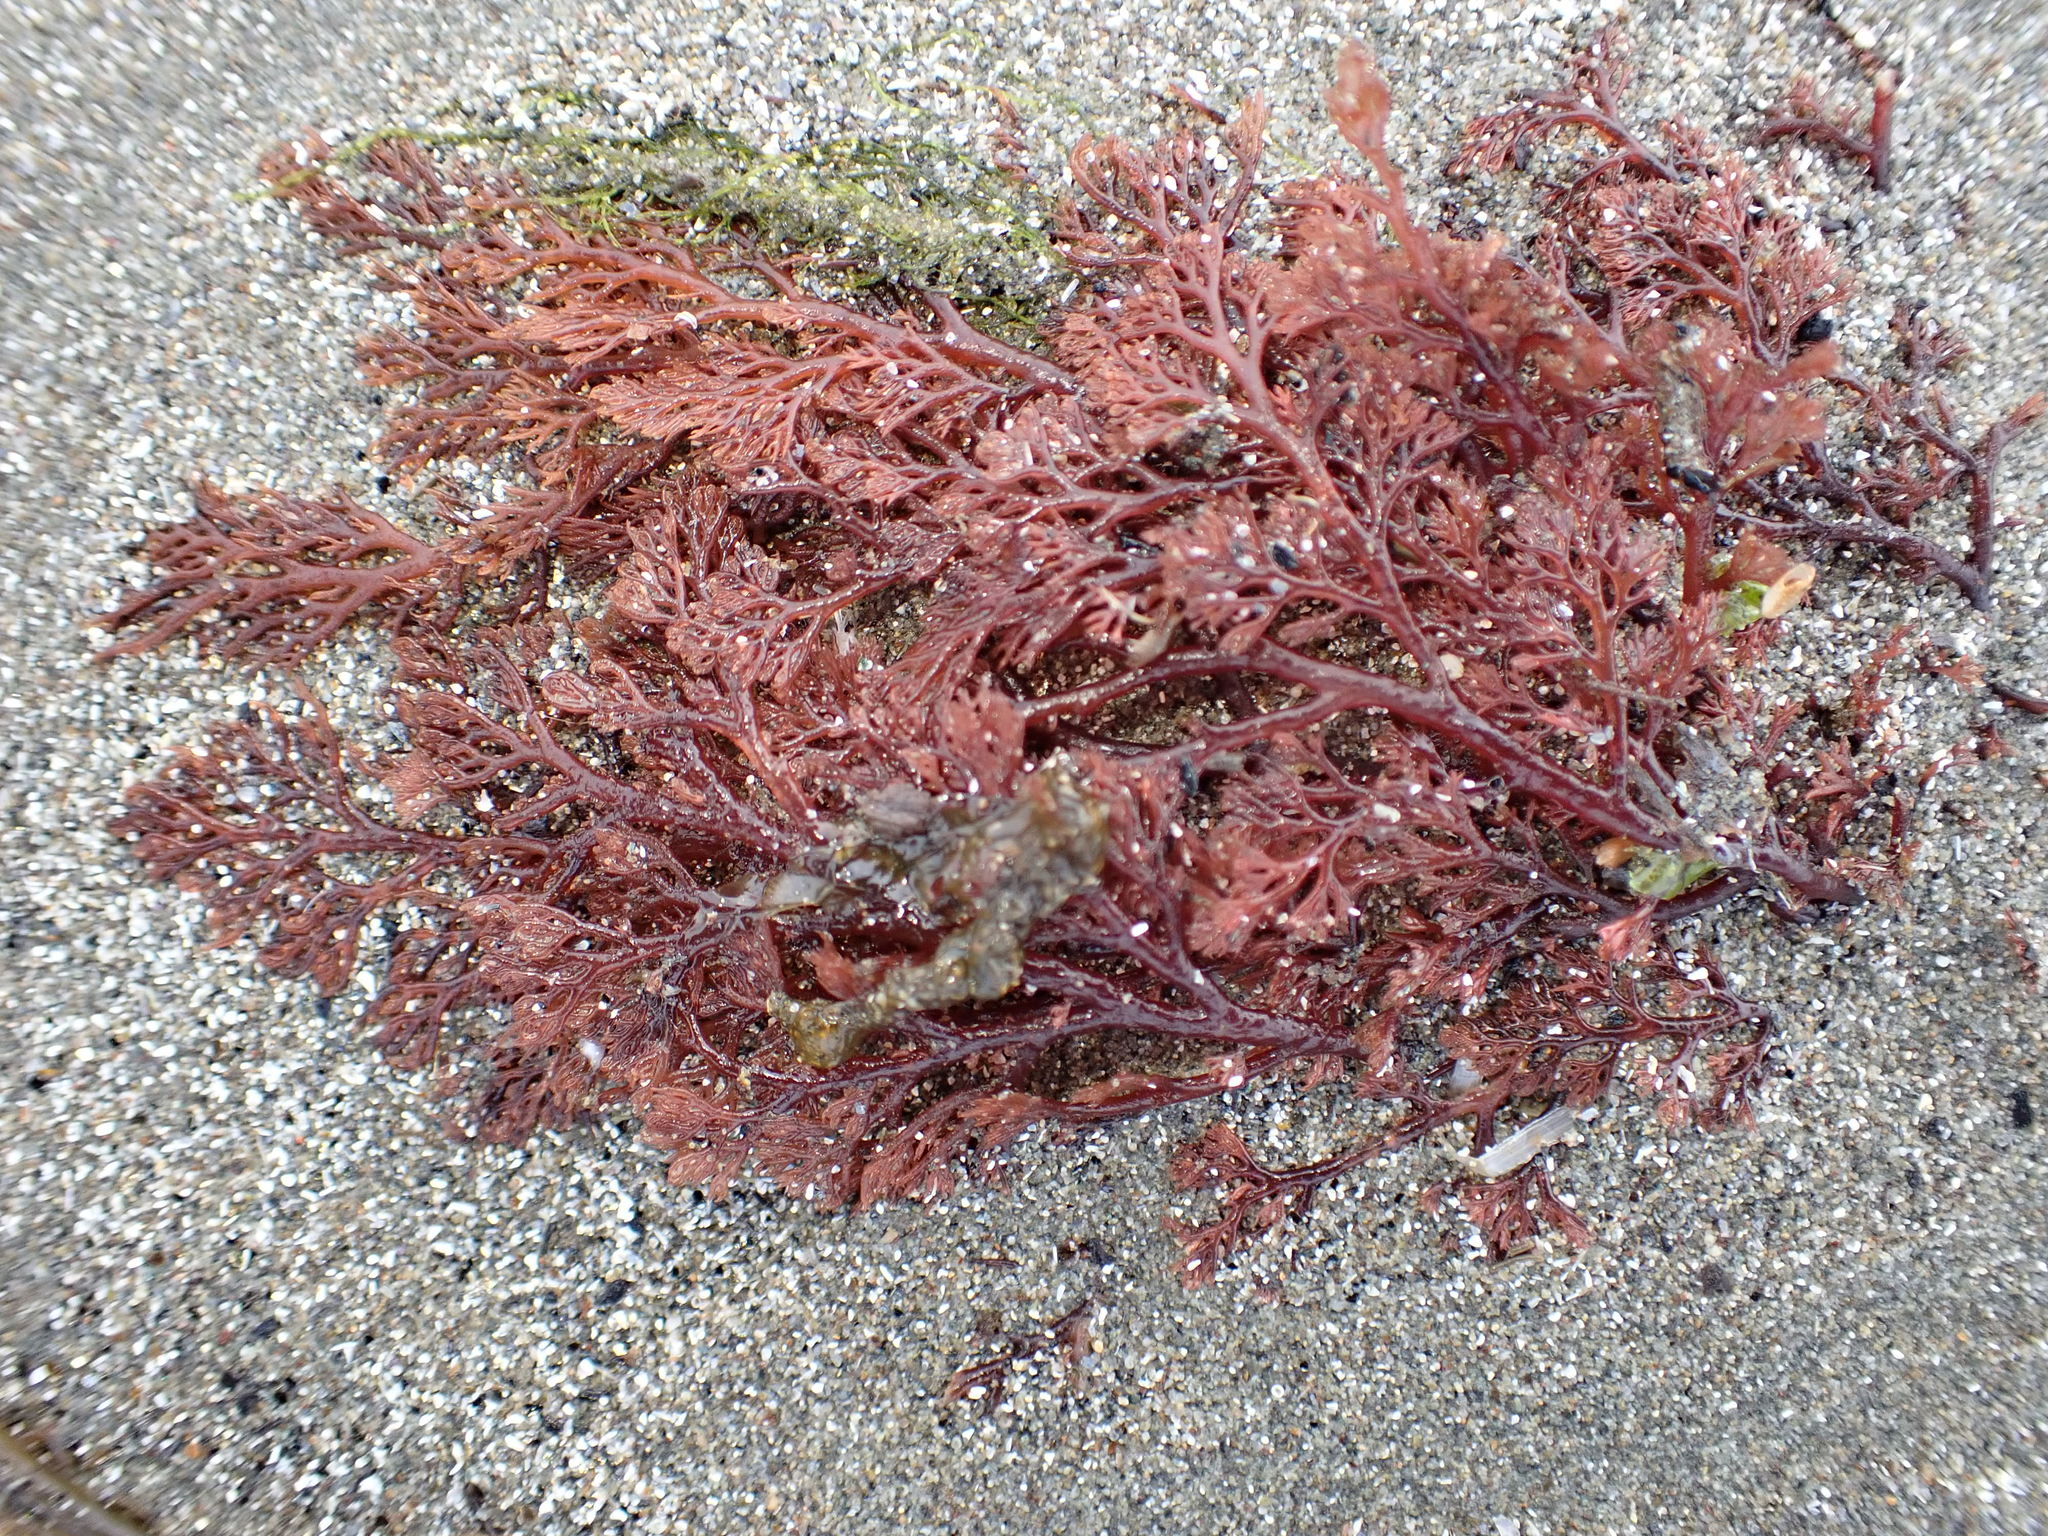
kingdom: Plantae
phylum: Rhodophyta
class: Florideophyceae
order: Ceramiales
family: Ceramiaceae
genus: Microcladia
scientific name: Microcladia coulteri
